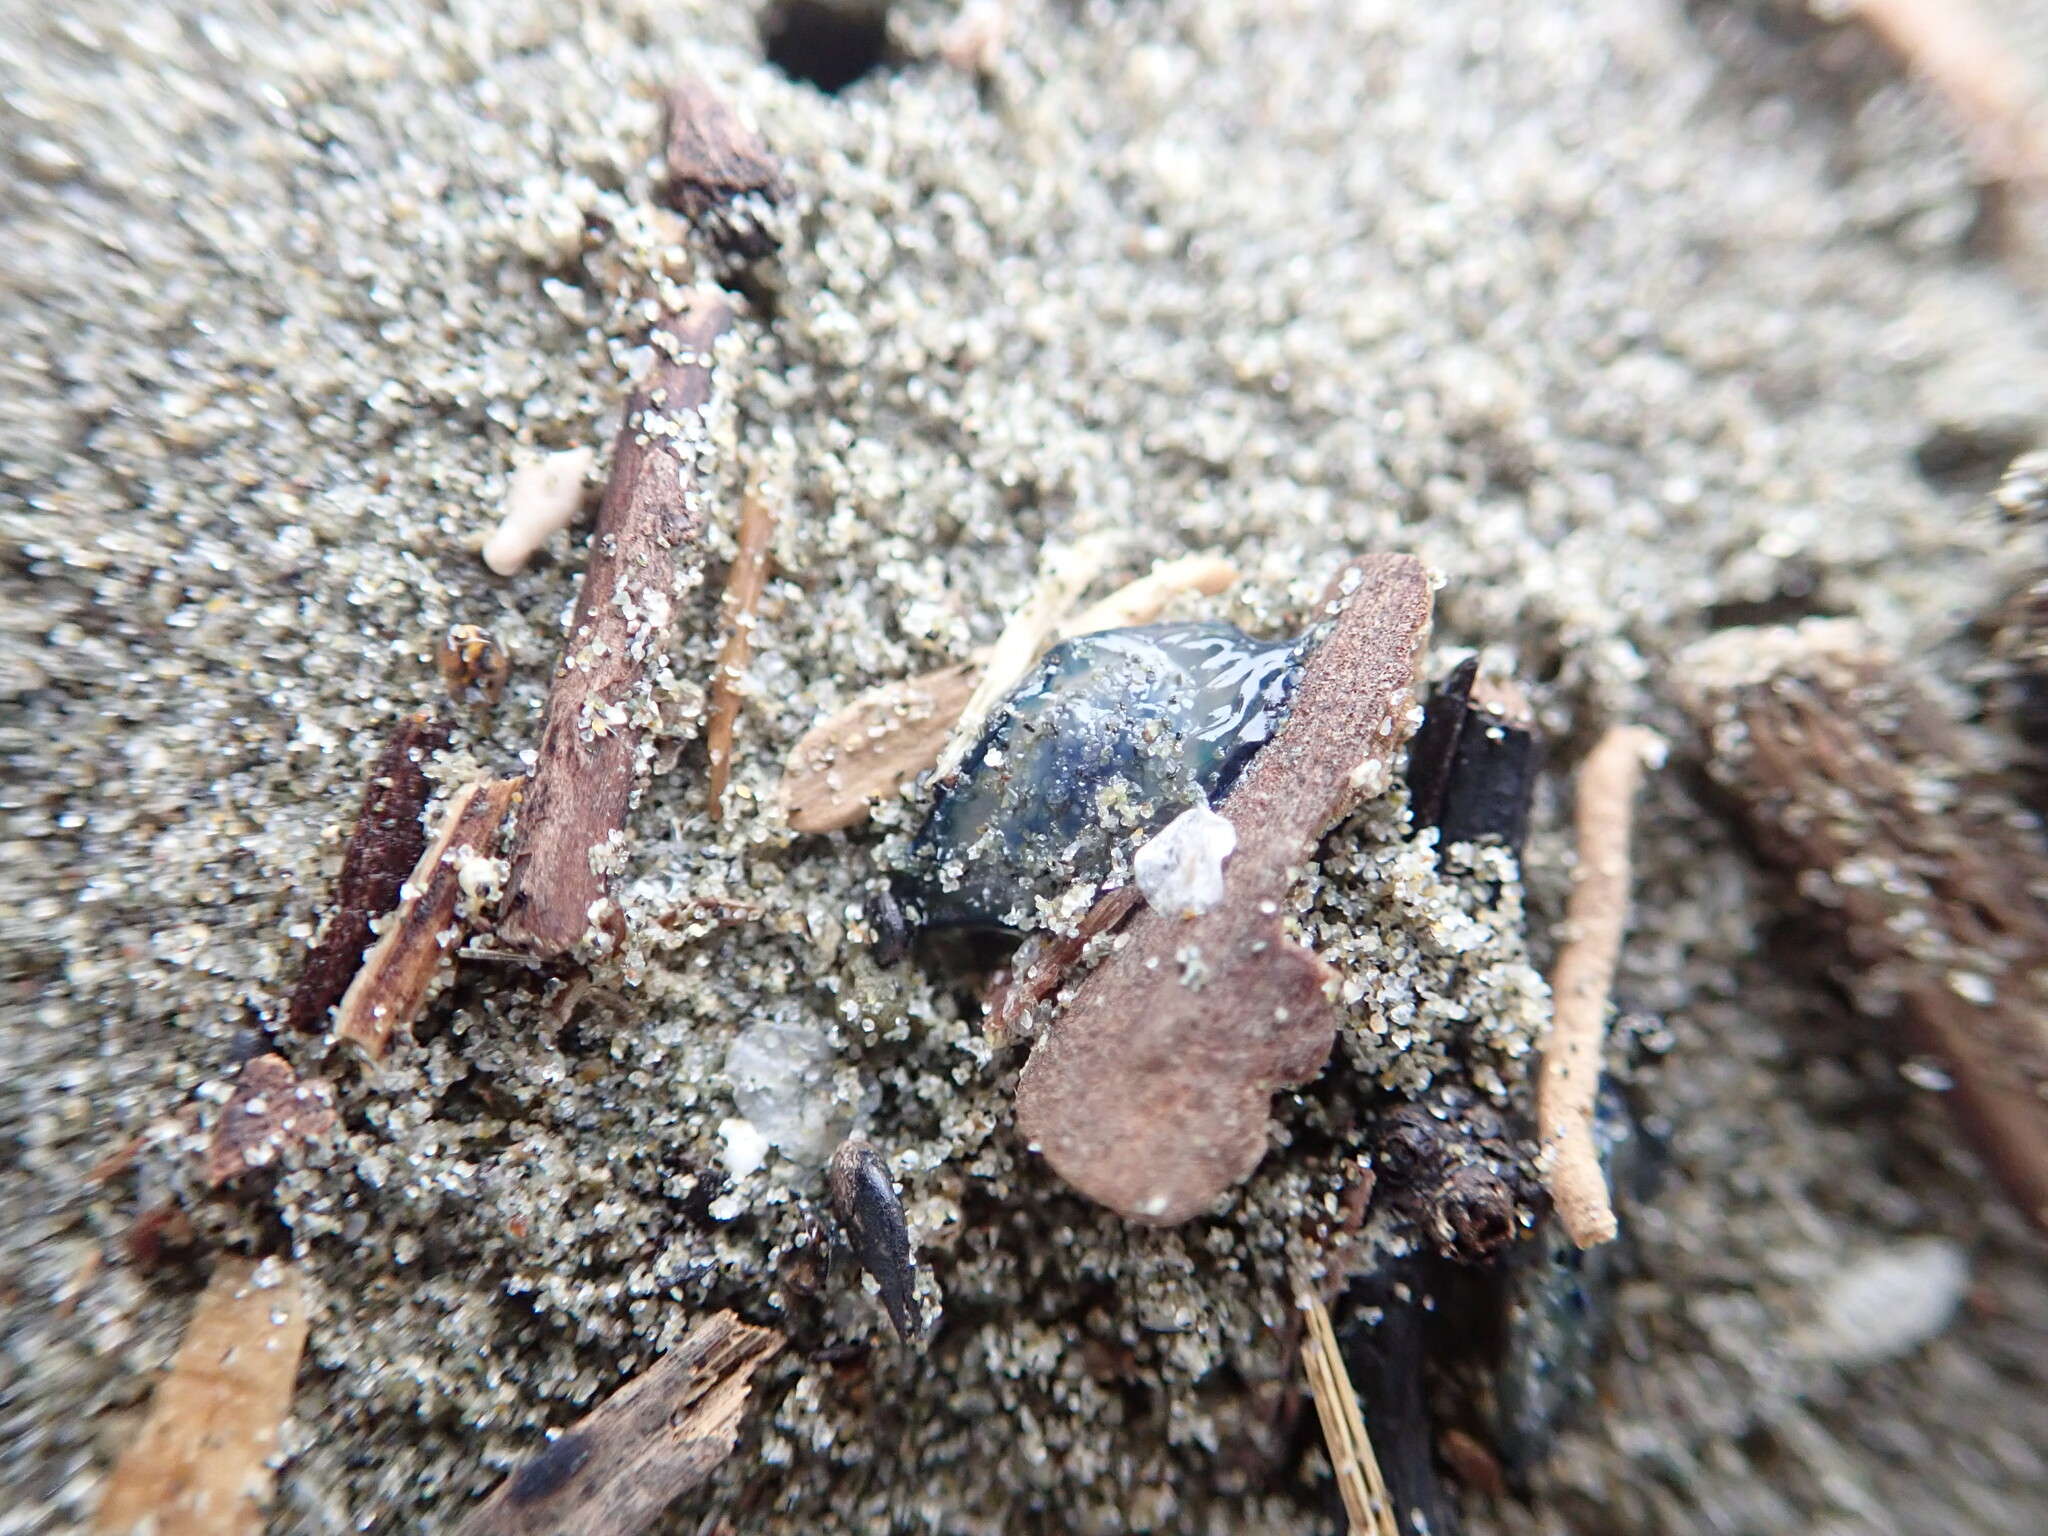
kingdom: Animalia
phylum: Cnidaria
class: Hydrozoa
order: Anthoathecata
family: Porpitidae
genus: Velella
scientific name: Velella velella
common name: By-the-wind-sailor
